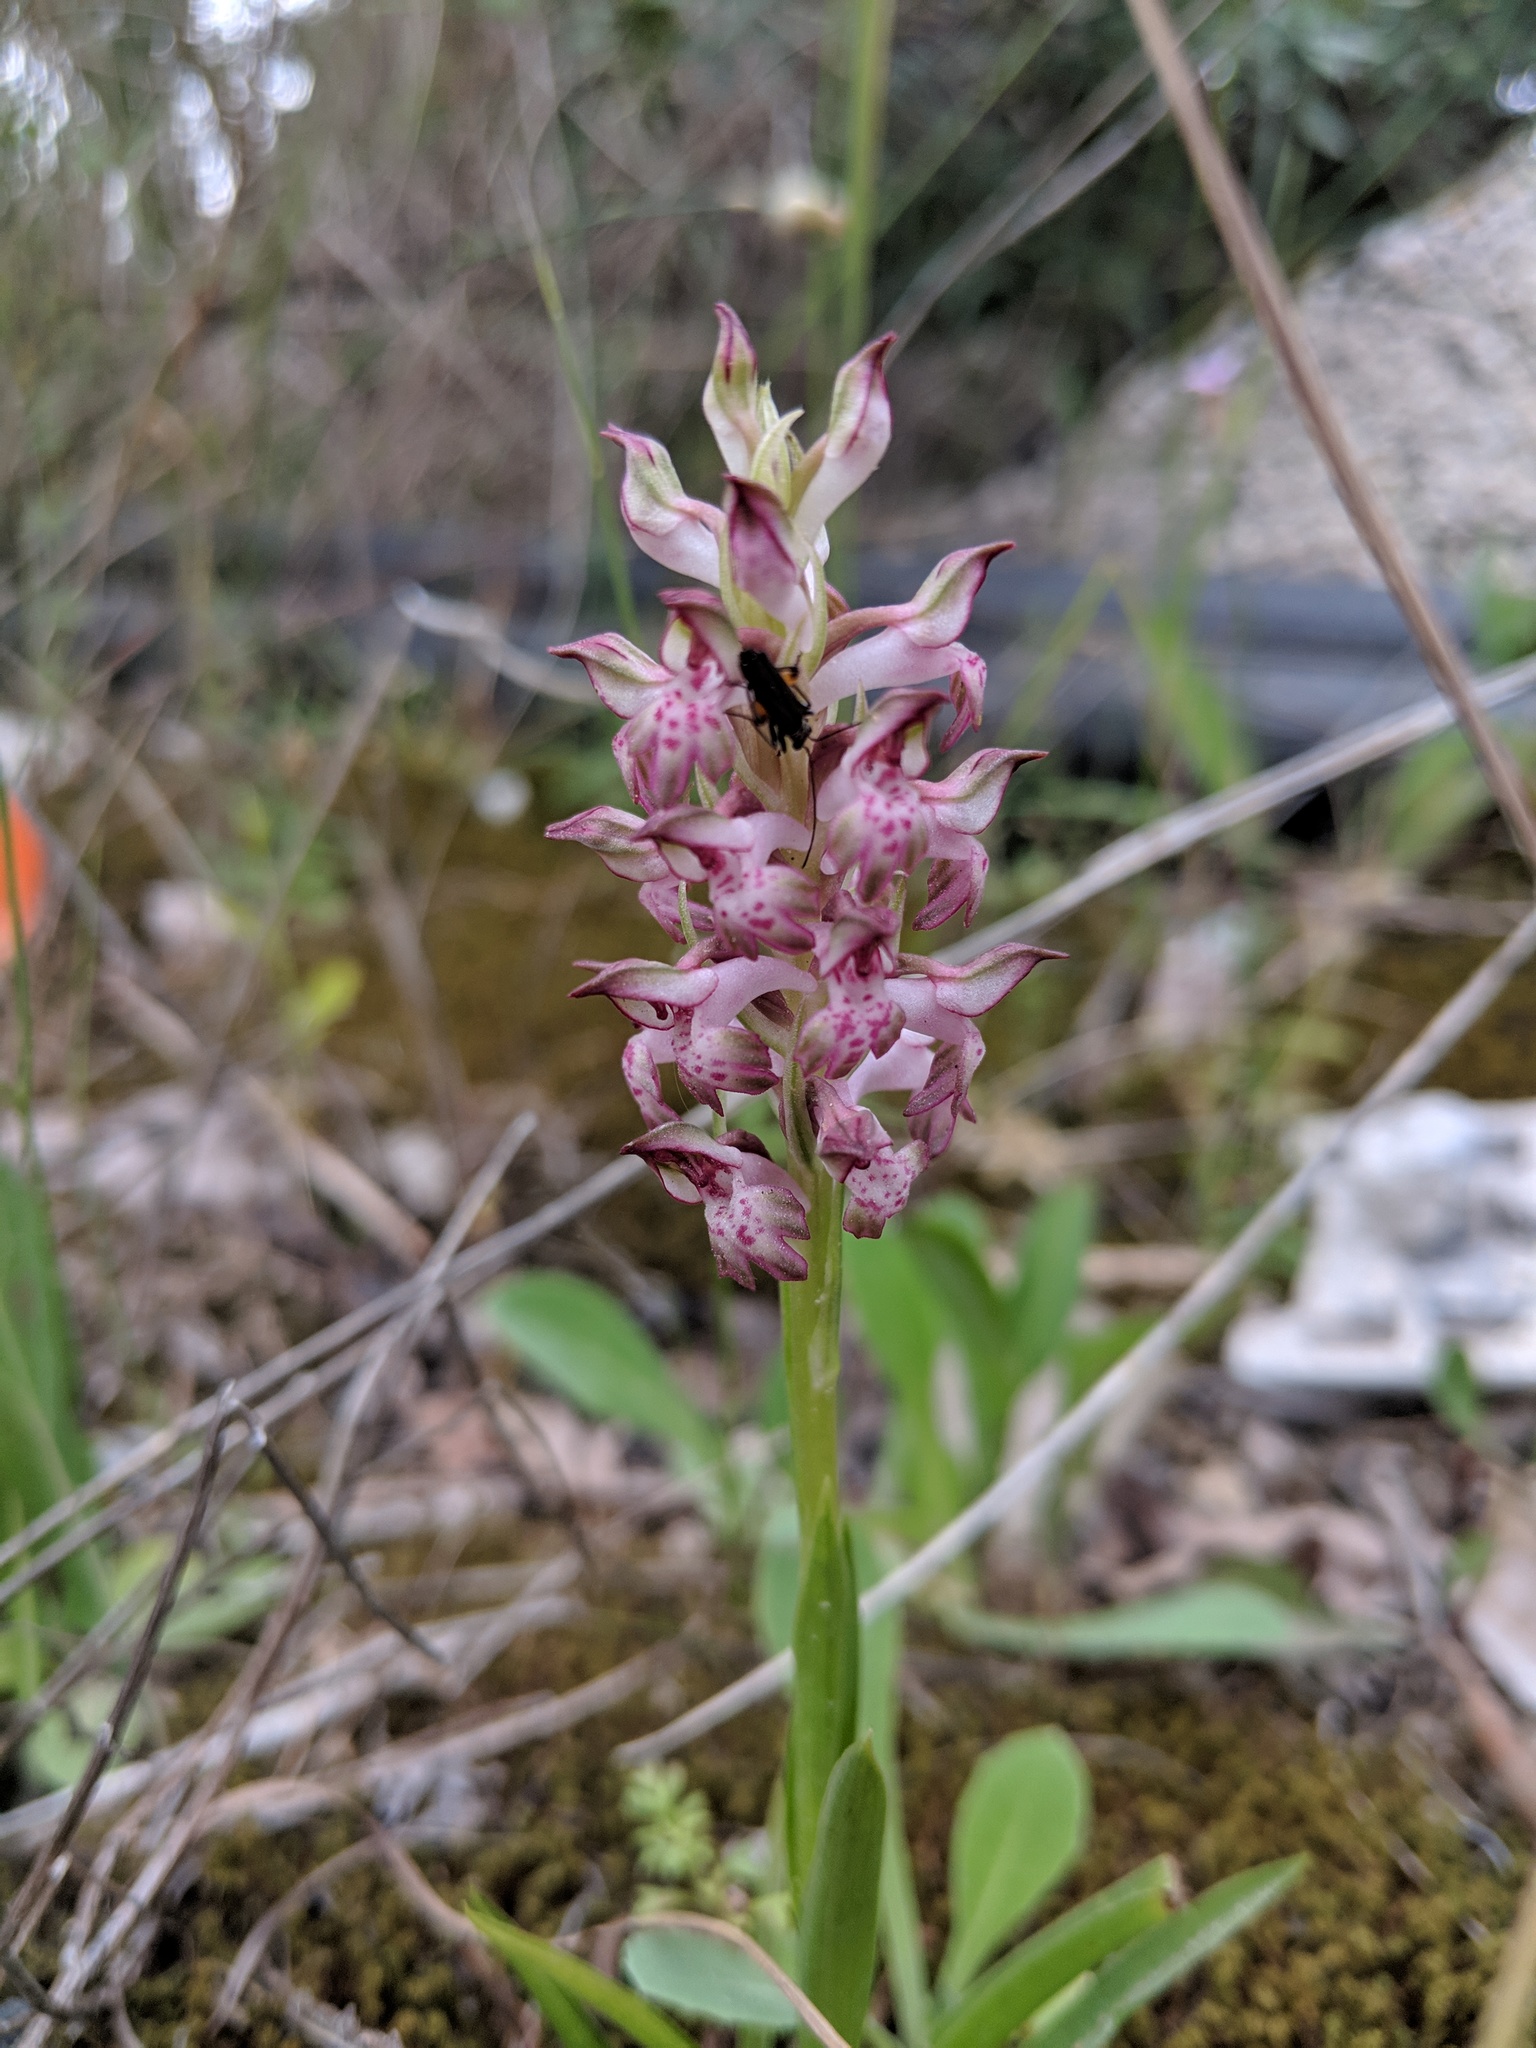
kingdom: Plantae
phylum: Tracheophyta
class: Liliopsida
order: Asparagales
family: Orchidaceae
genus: Anacamptis
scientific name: Anacamptis coriophora
